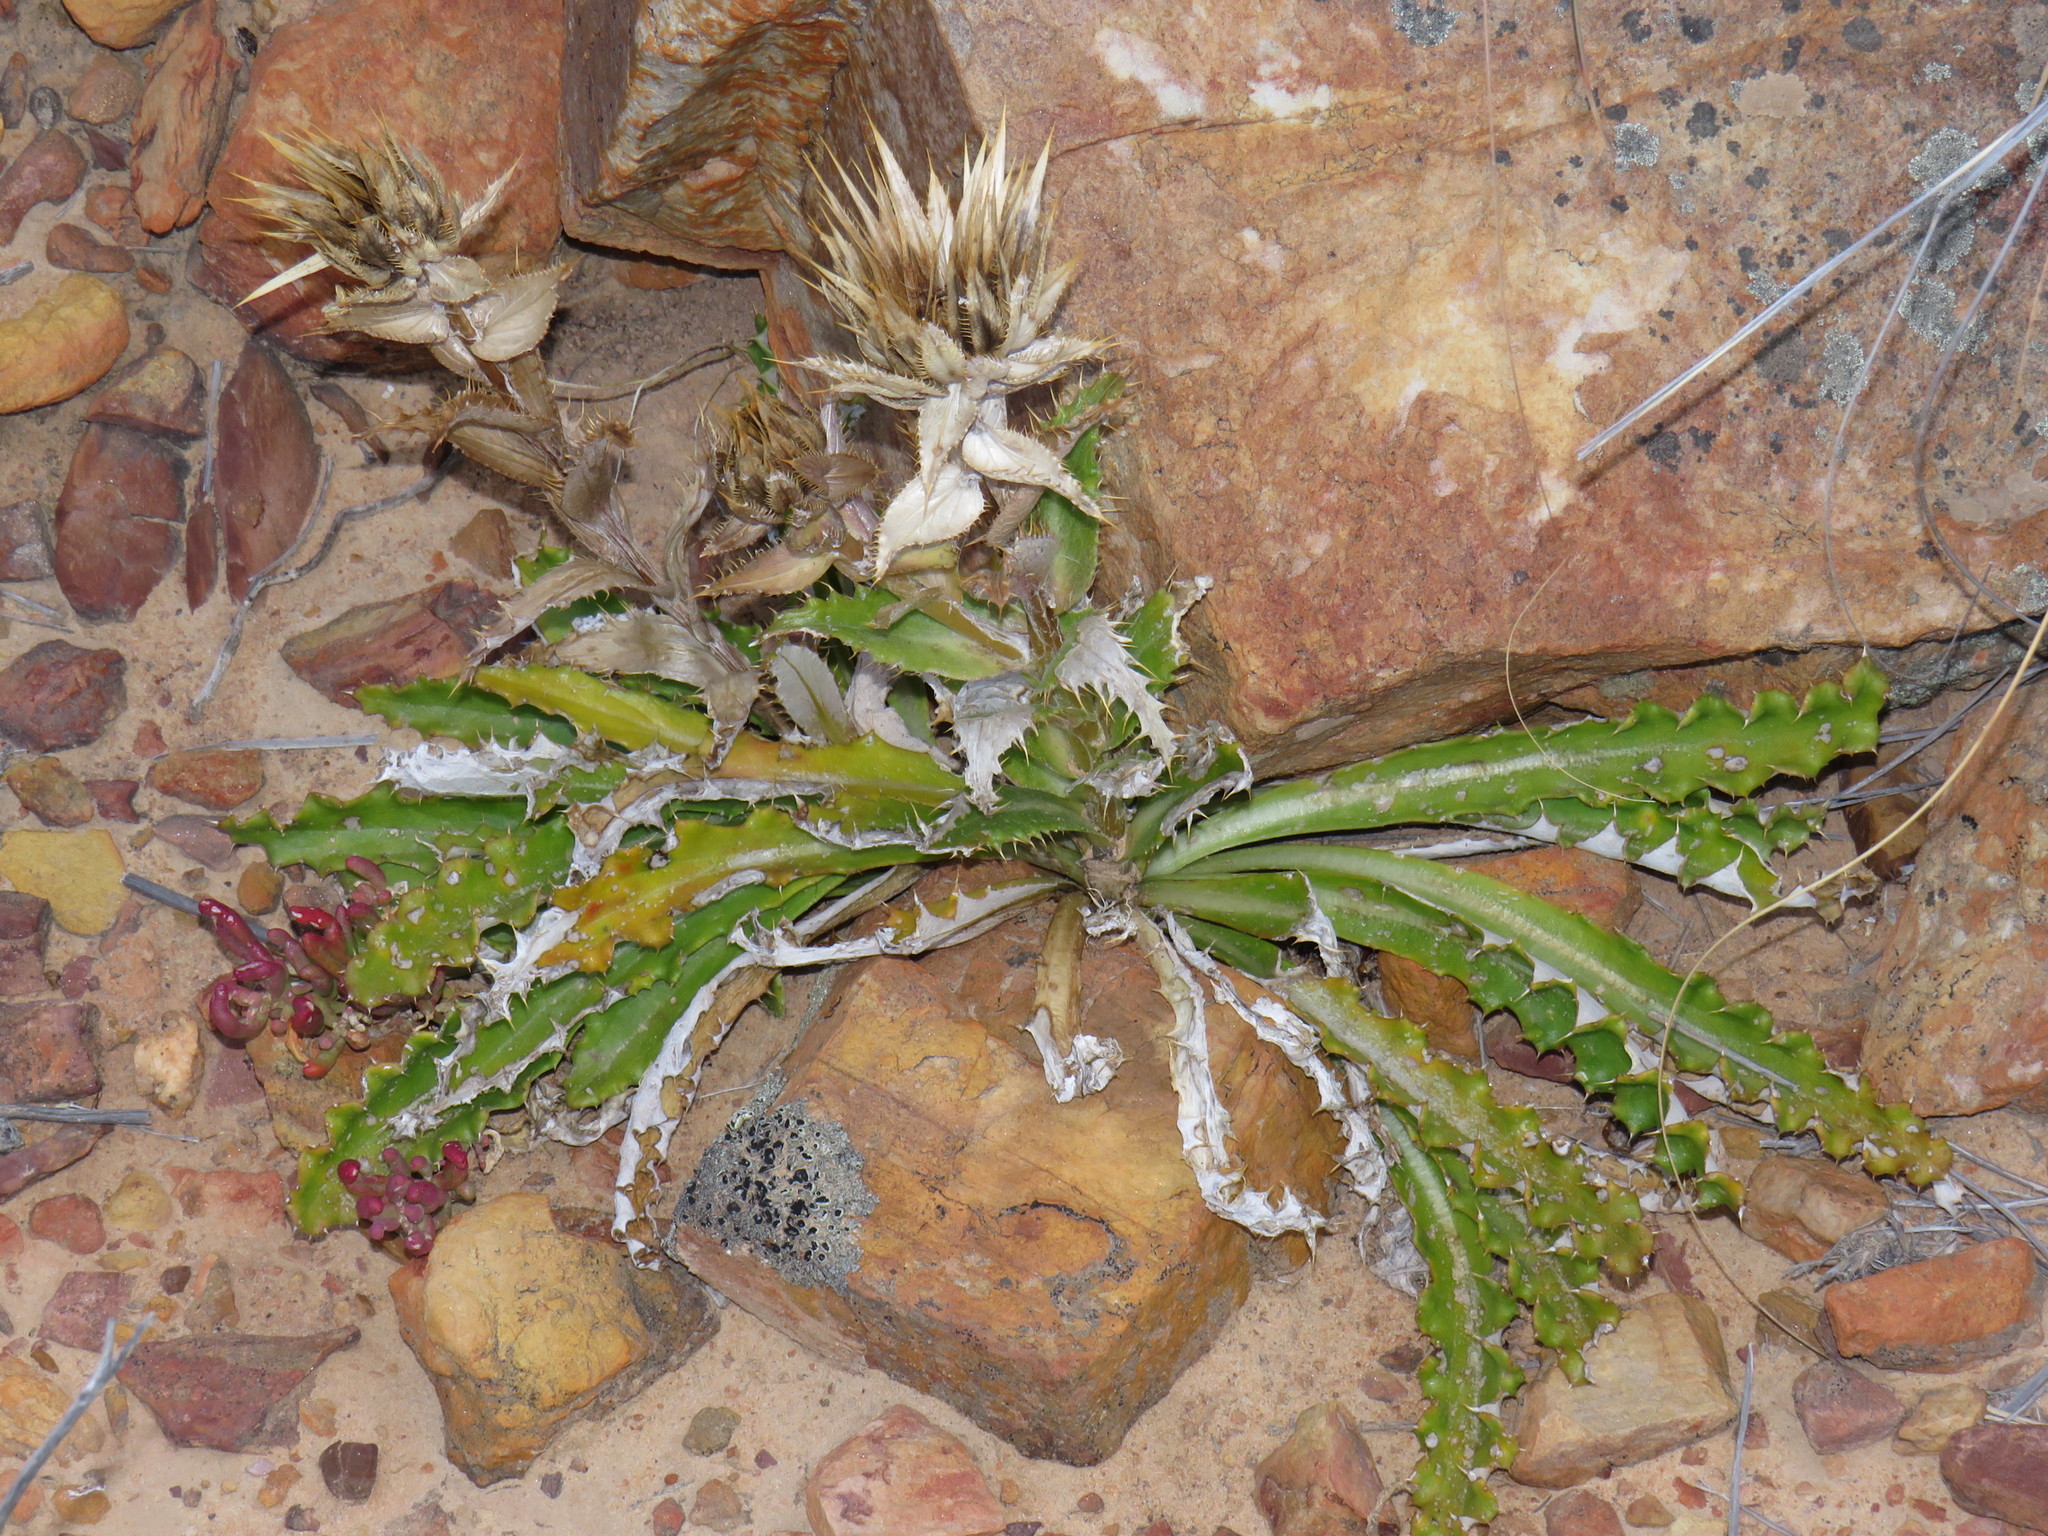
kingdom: Plantae
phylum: Tracheophyta
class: Magnoliopsida
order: Asterales
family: Asteraceae
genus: Berkheya
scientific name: Berkheya armata
